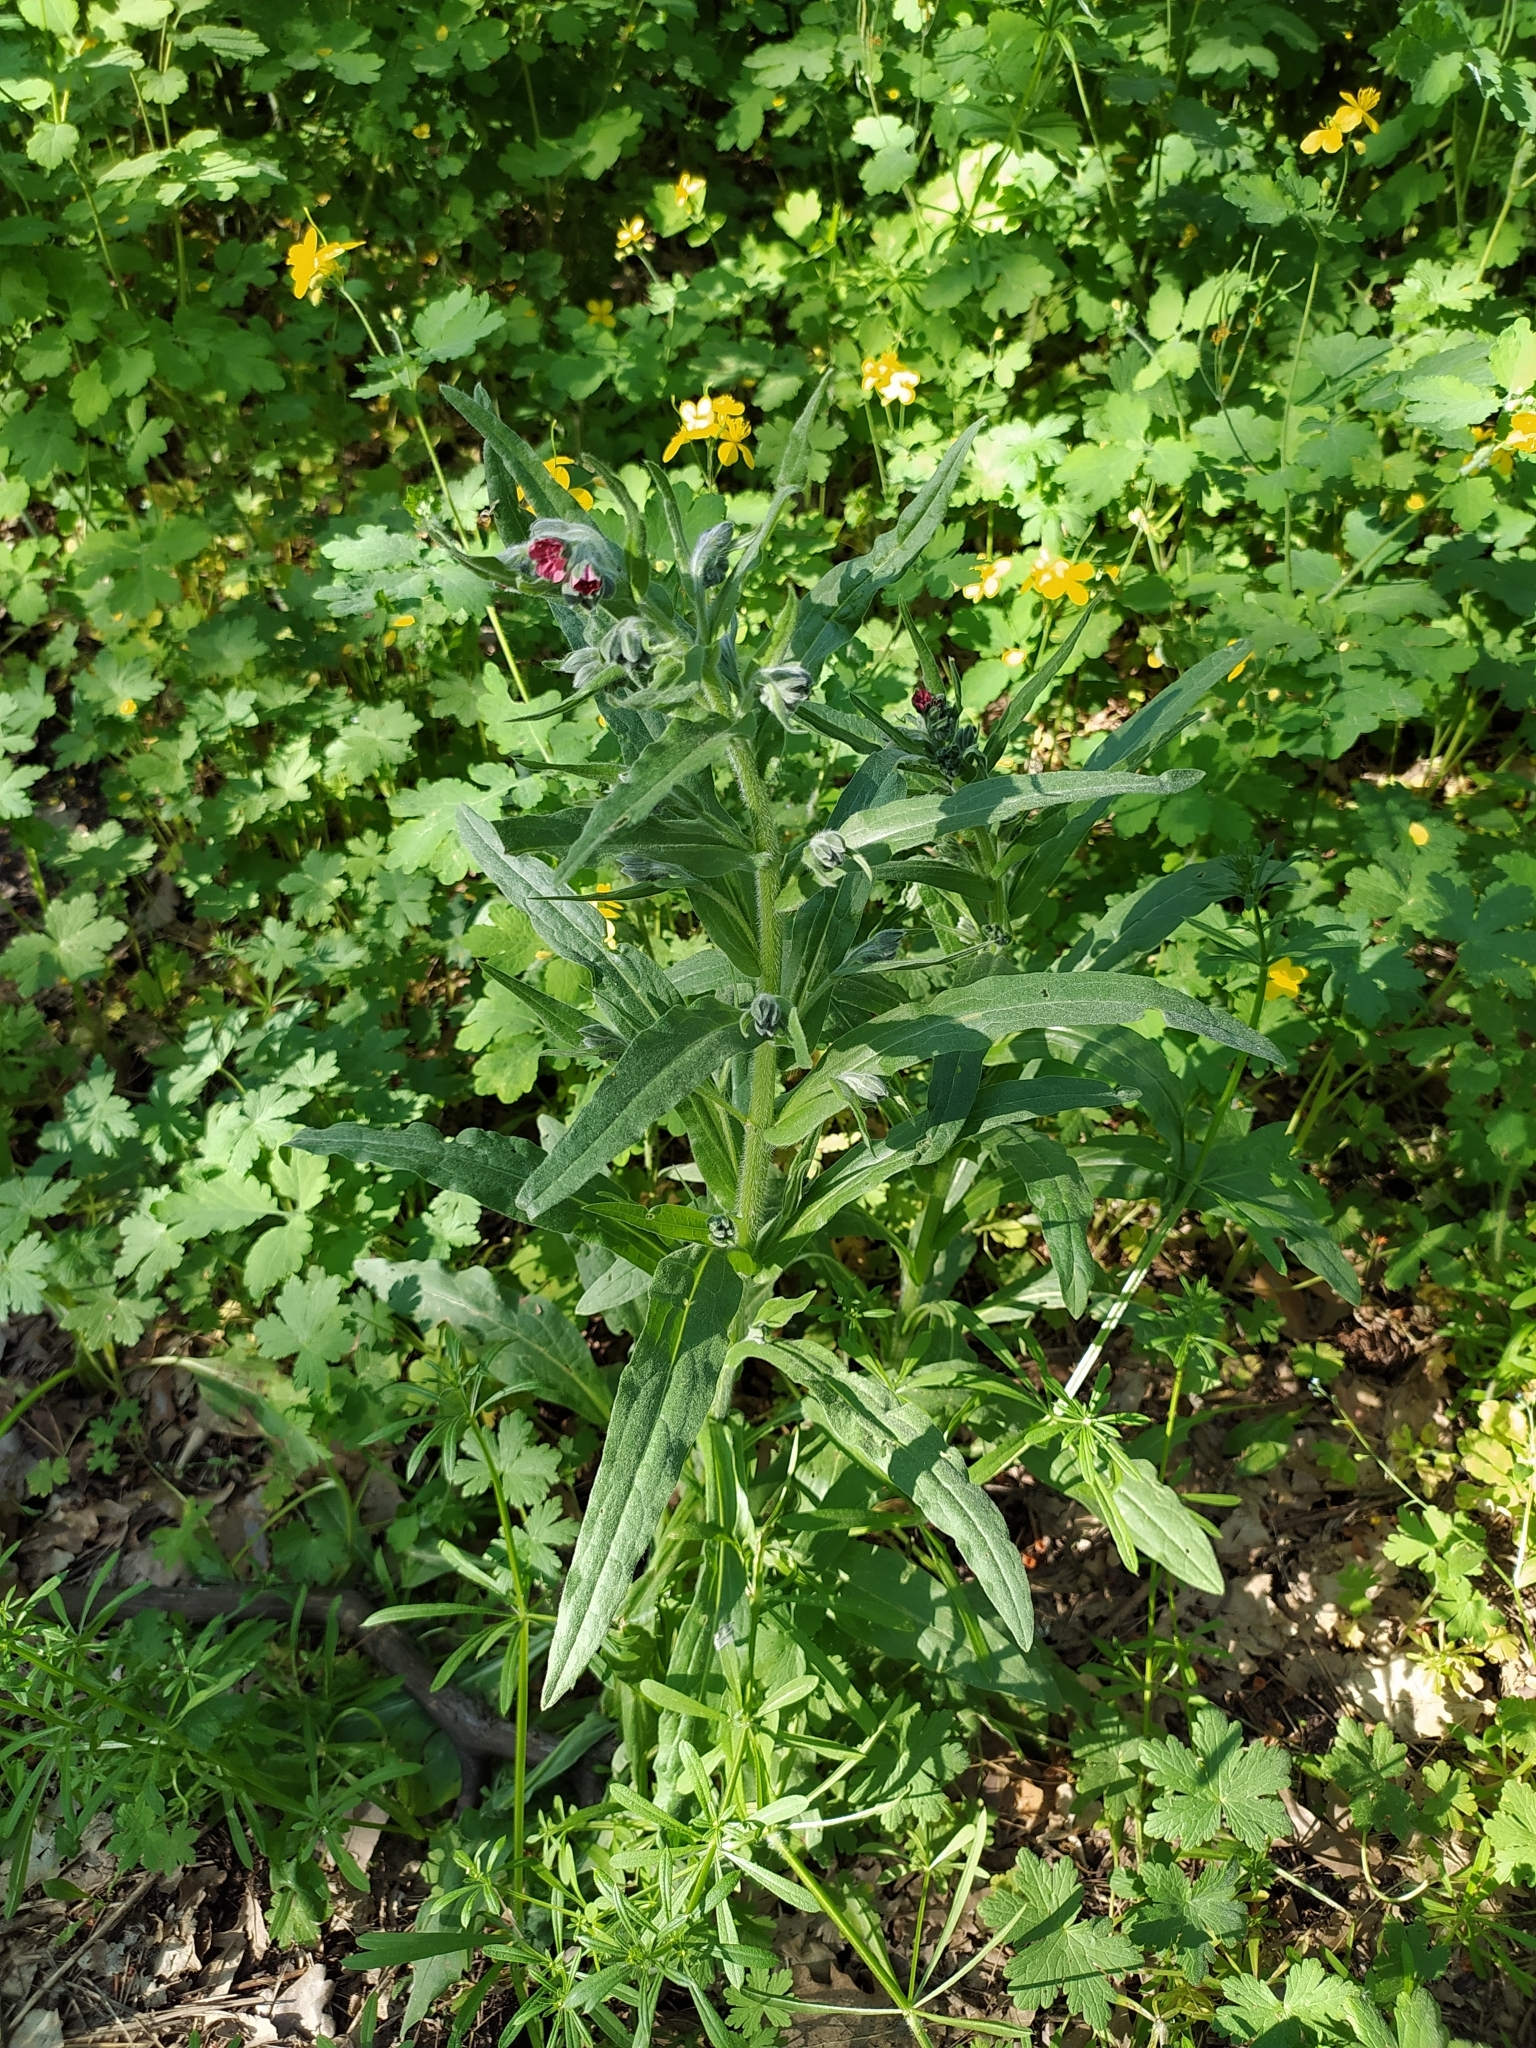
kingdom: Plantae
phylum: Tracheophyta
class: Magnoliopsida
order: Boraginales
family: Boraginaceae
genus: Cynoglossum
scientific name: Cynoglossum officinale
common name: Hound's-tongue
